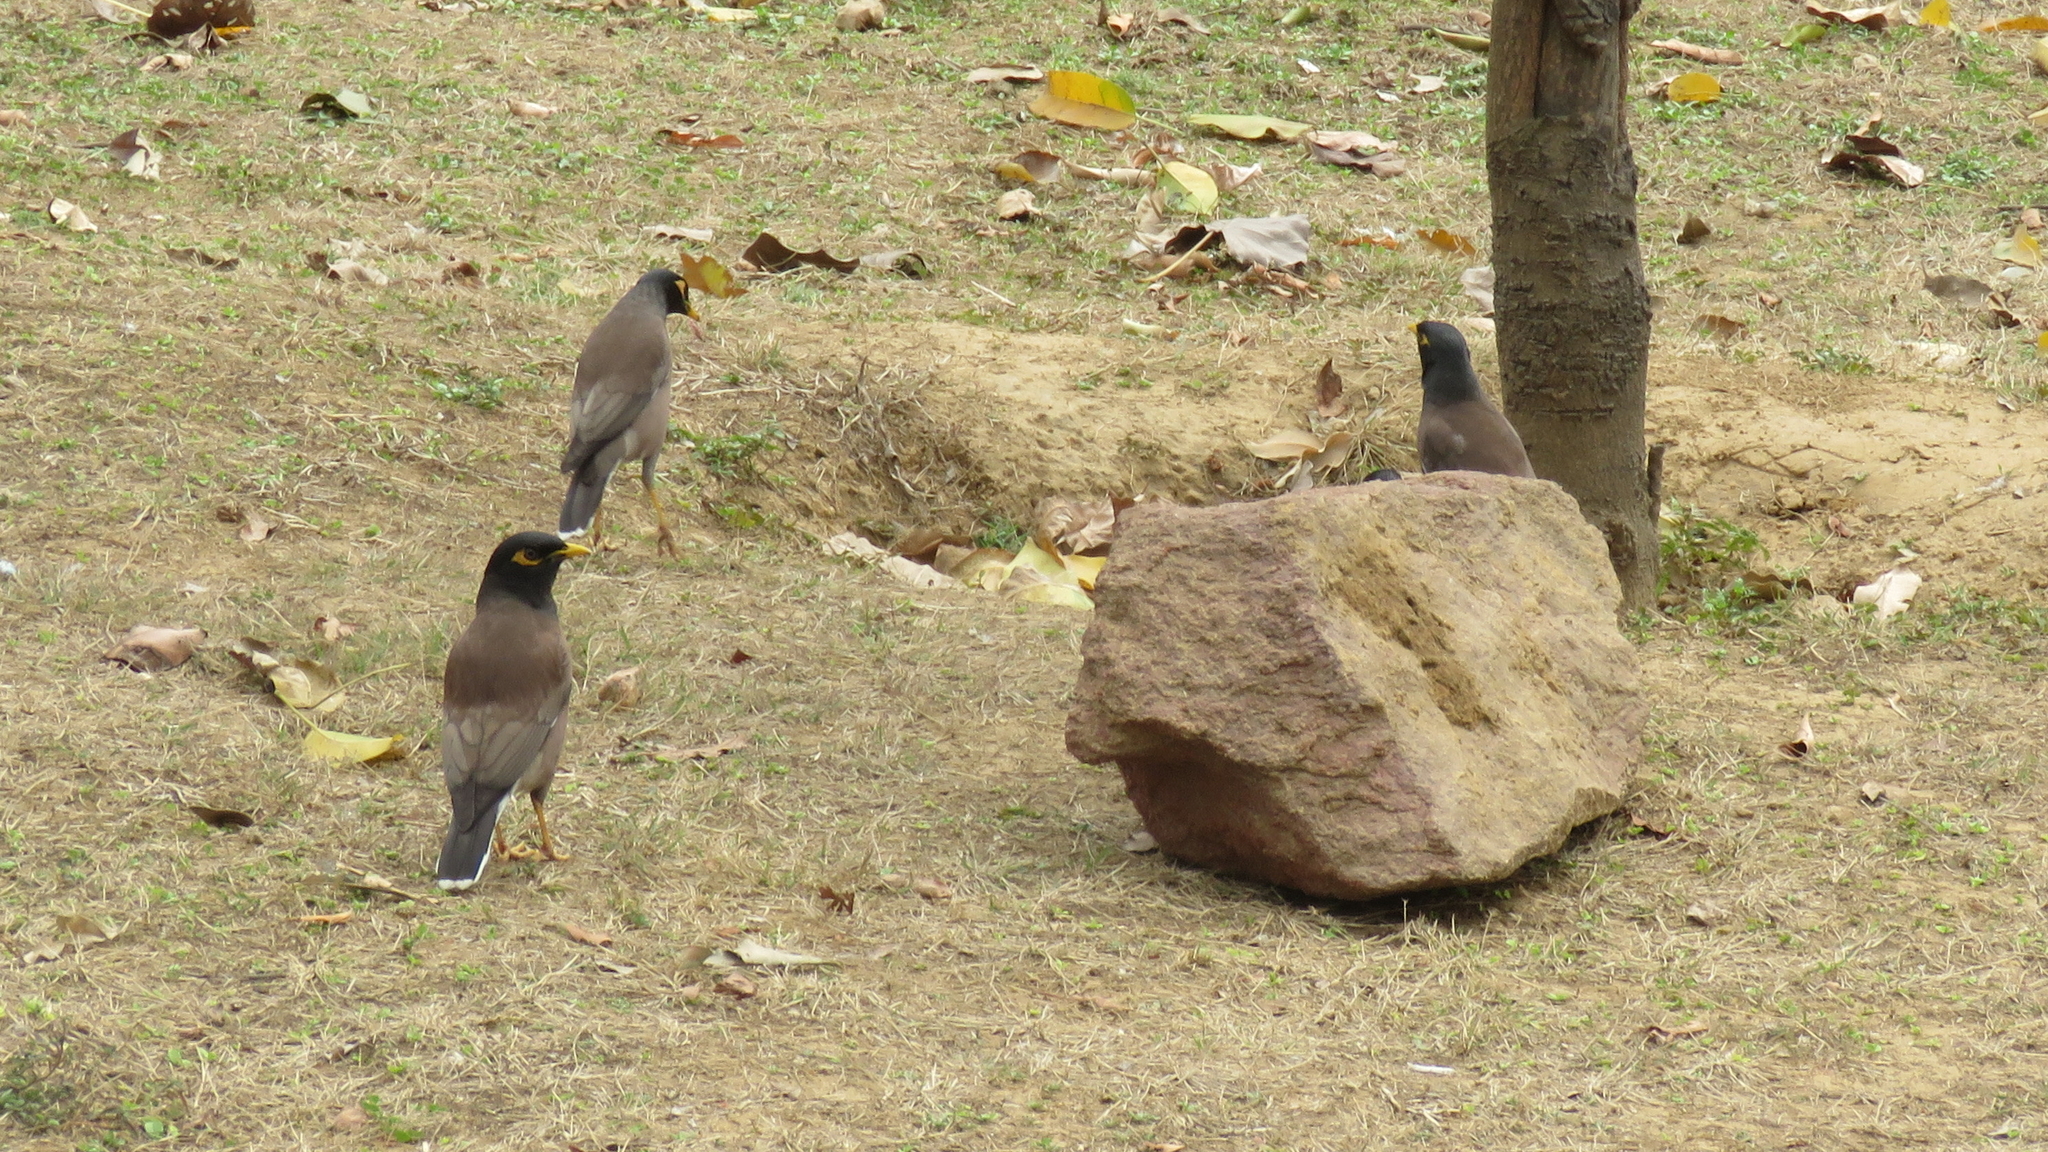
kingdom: Animalia
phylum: Chordata
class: Aves
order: Passeriformes
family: Sturnidae
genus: Acridotheres
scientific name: Acridotheres tristis
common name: Common myna
